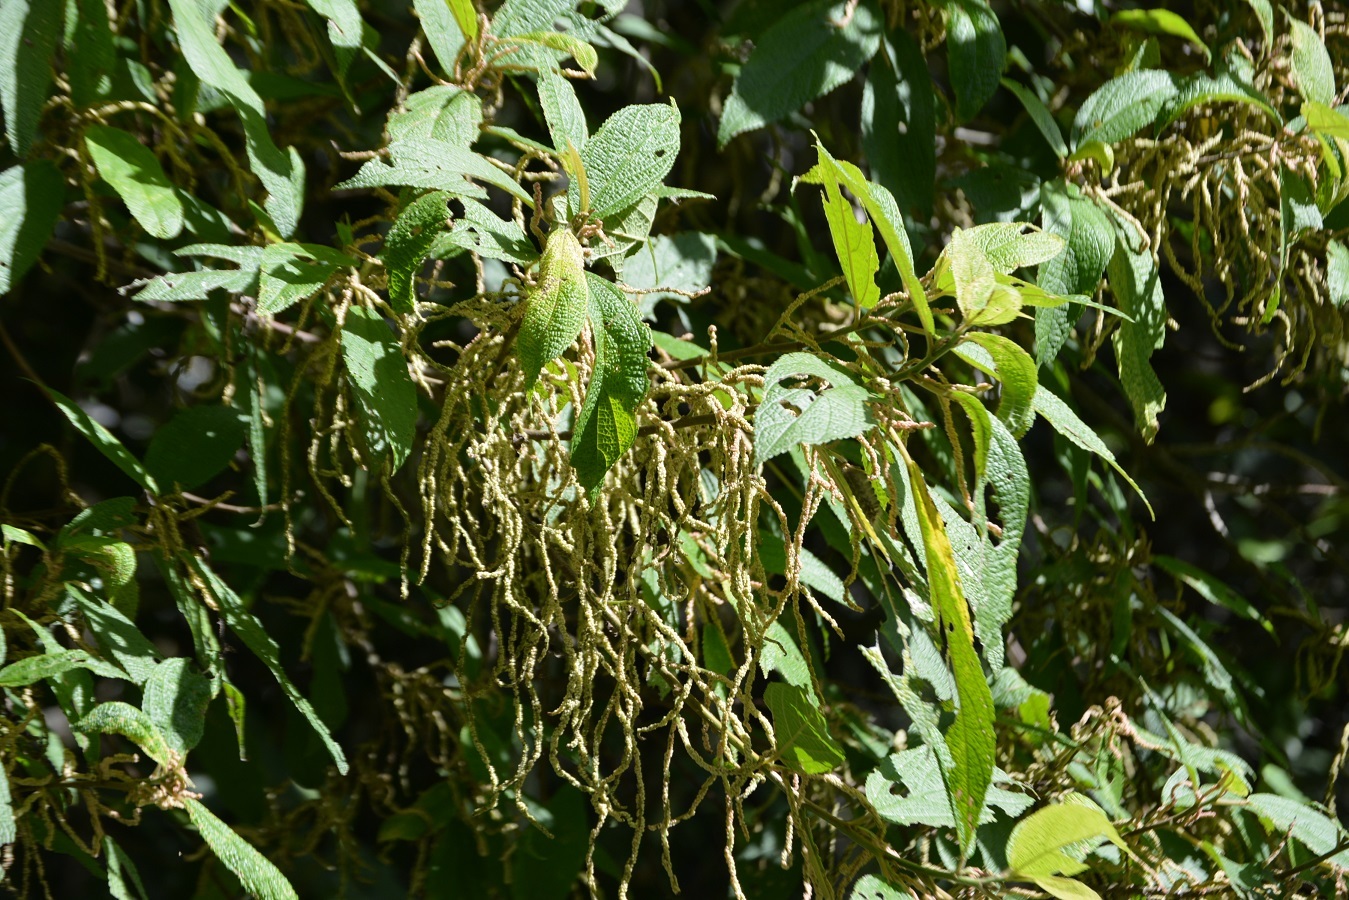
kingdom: Plantae
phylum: Tracheophyta
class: Magnoliopsida
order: Rosales
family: Urticaceae
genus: Myriocarpa
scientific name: Myriocarpa heterospicata
